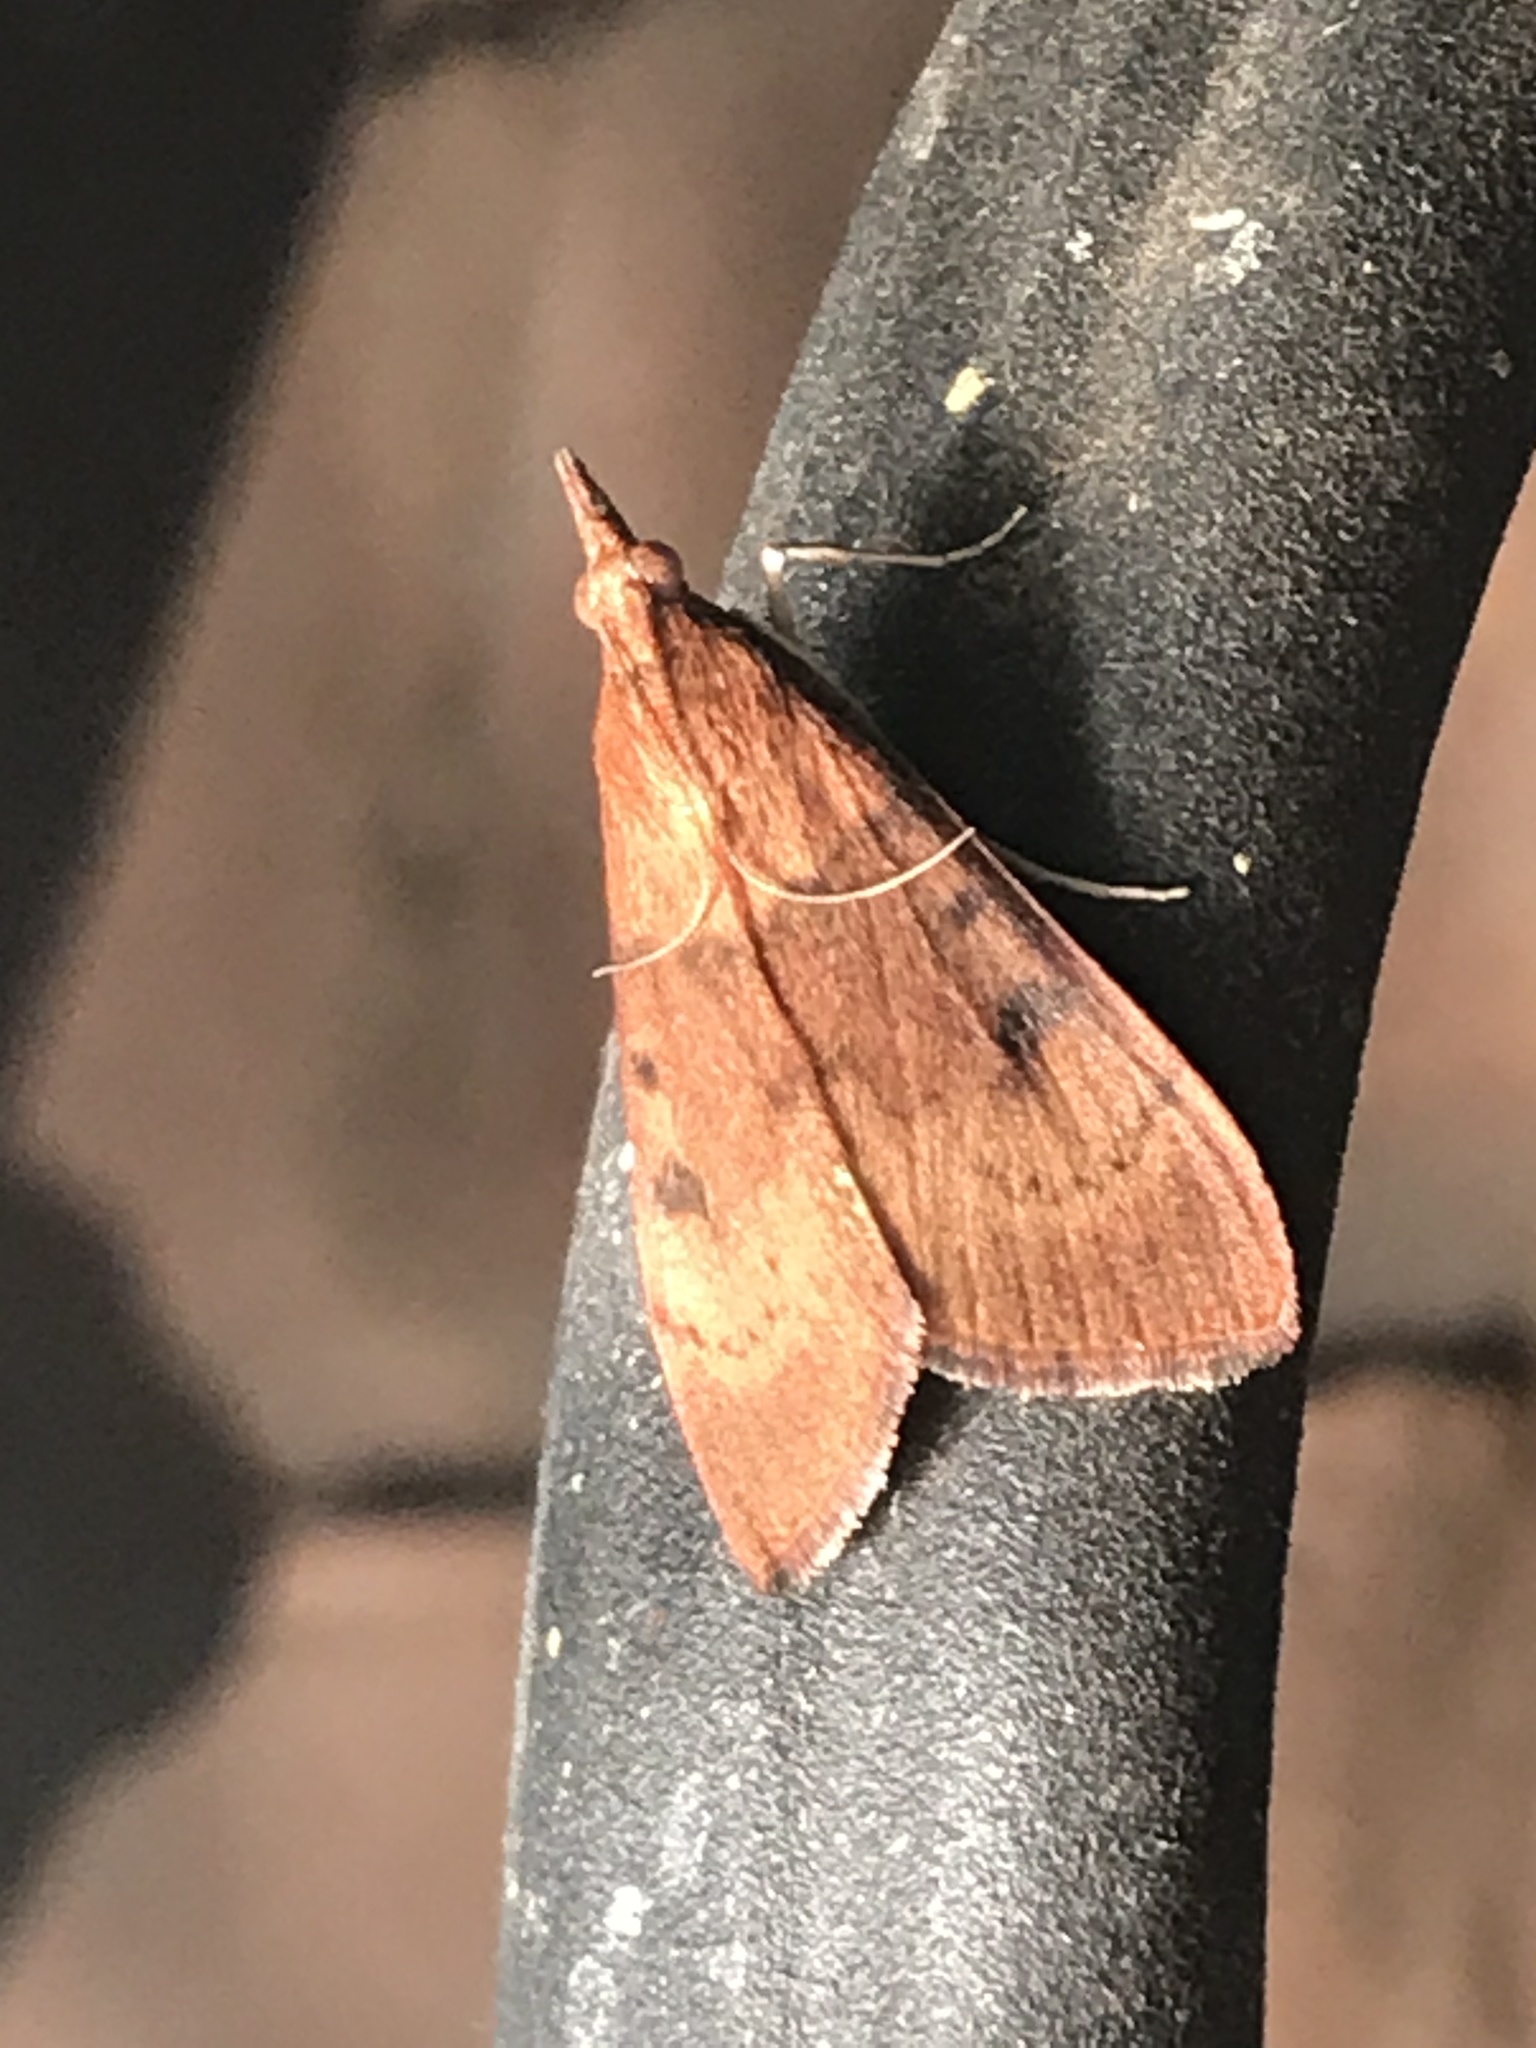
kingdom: Animalia
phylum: Arthropoda
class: Insecta
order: Lepidoptera
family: Crambidae
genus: Uresiphita
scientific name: Uresiphita reversalis
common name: Genista broom moth
